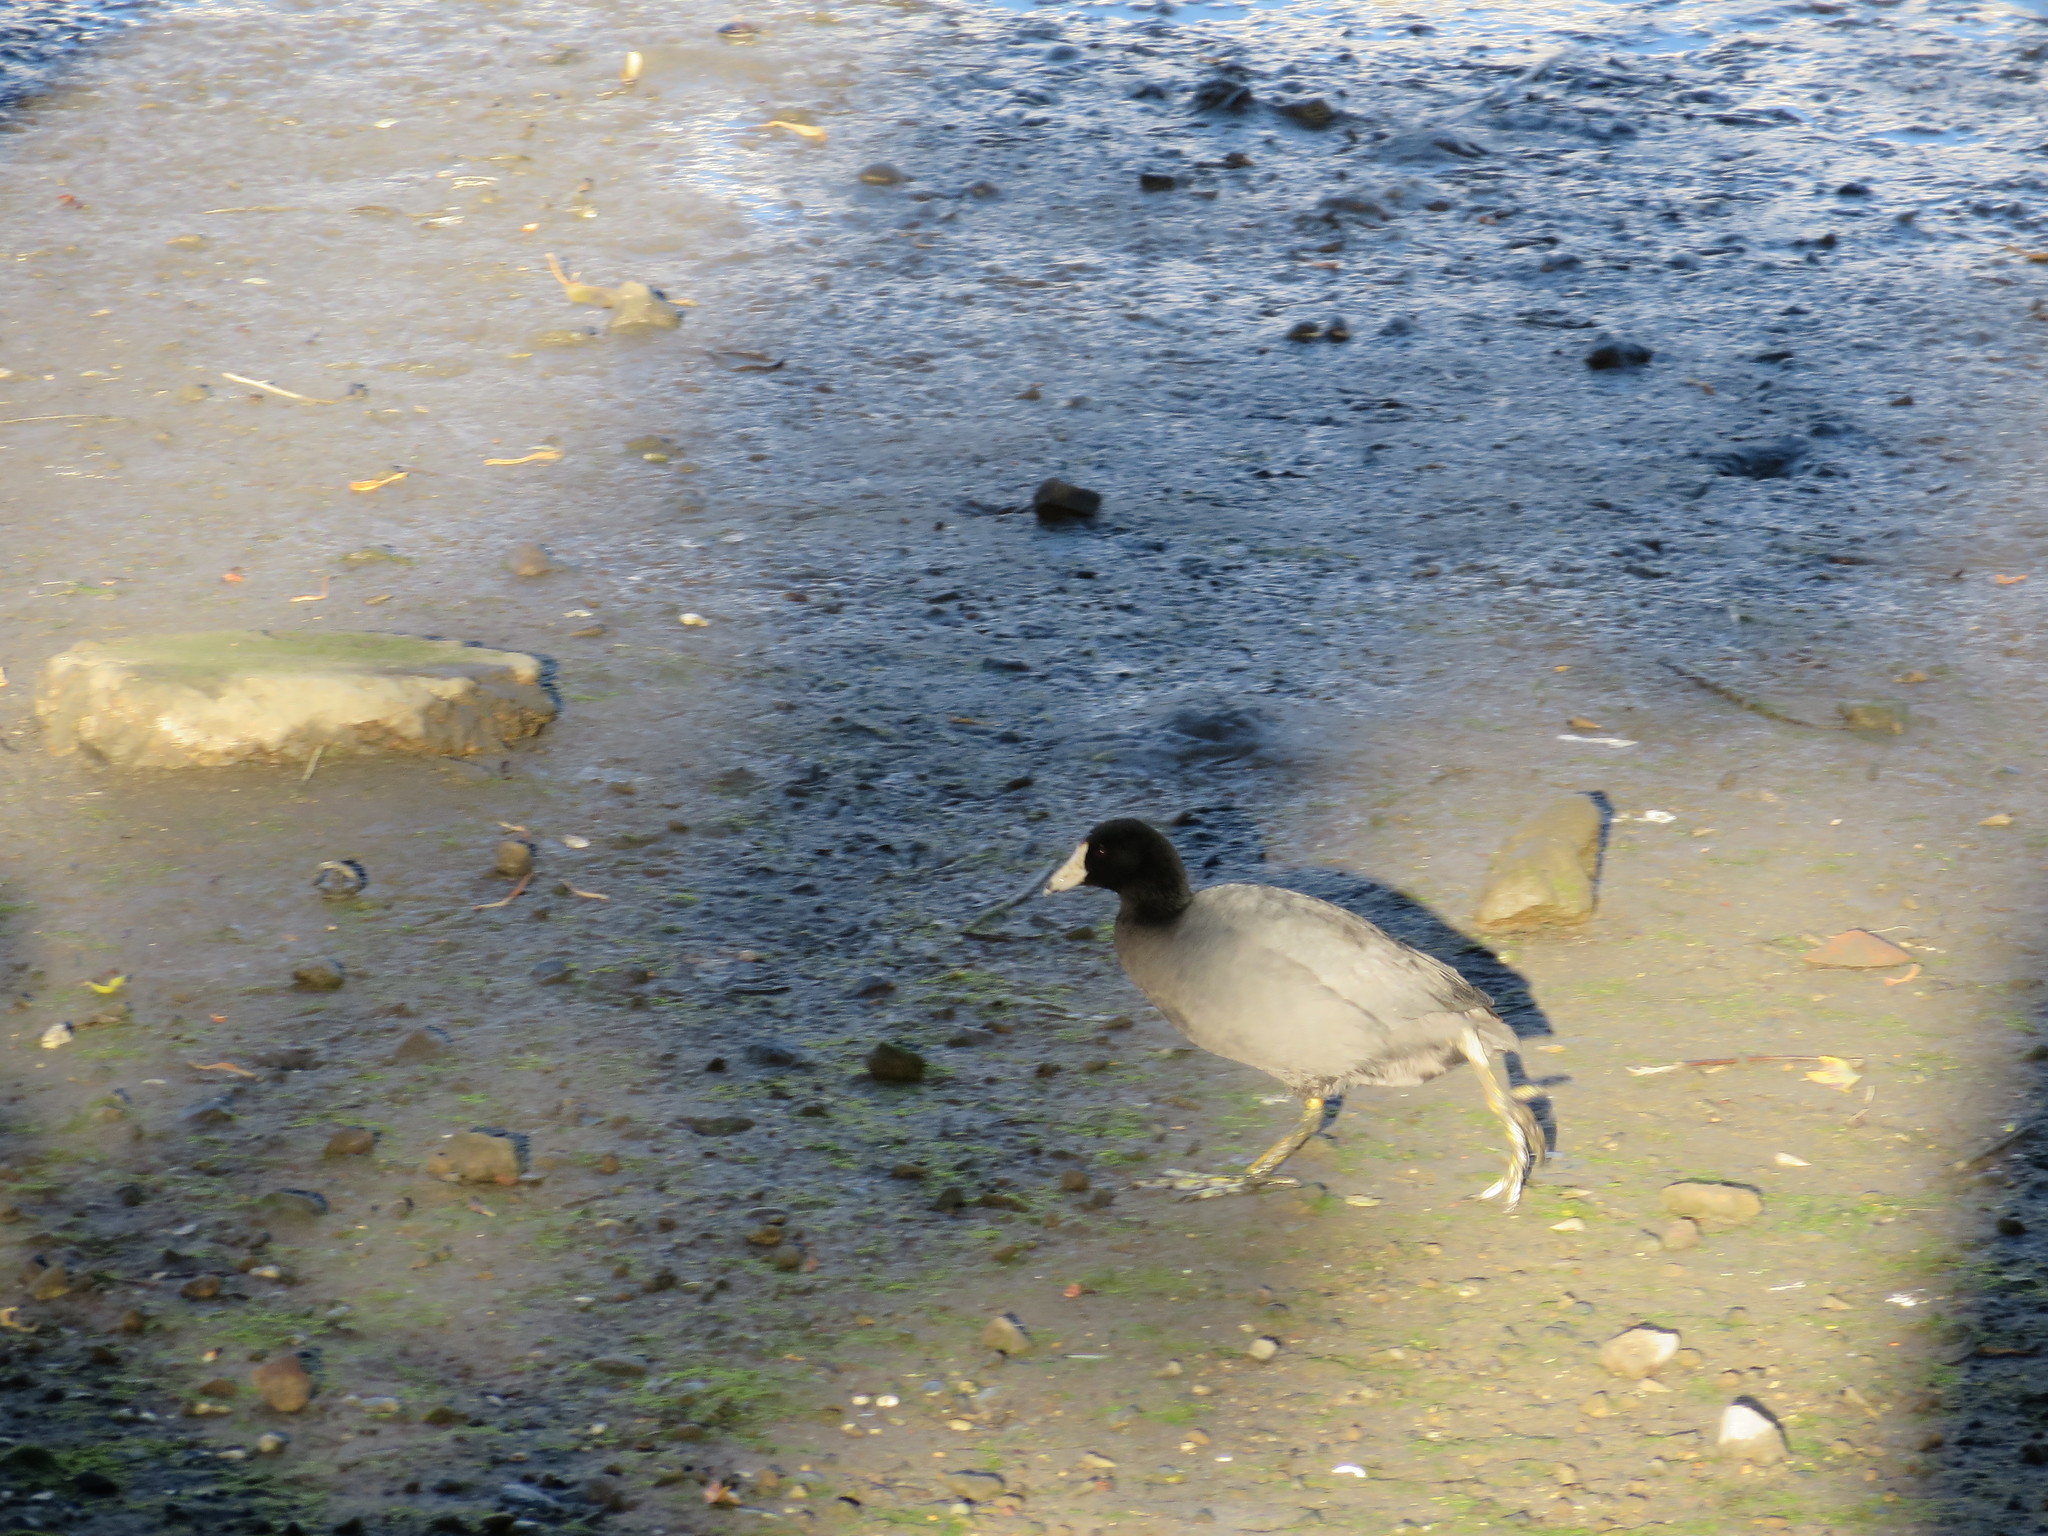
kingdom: Animalia
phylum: Chordata
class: Aves
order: Gruiformes
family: Rallidae
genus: Fulica
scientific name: Fulica americana
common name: American coot
